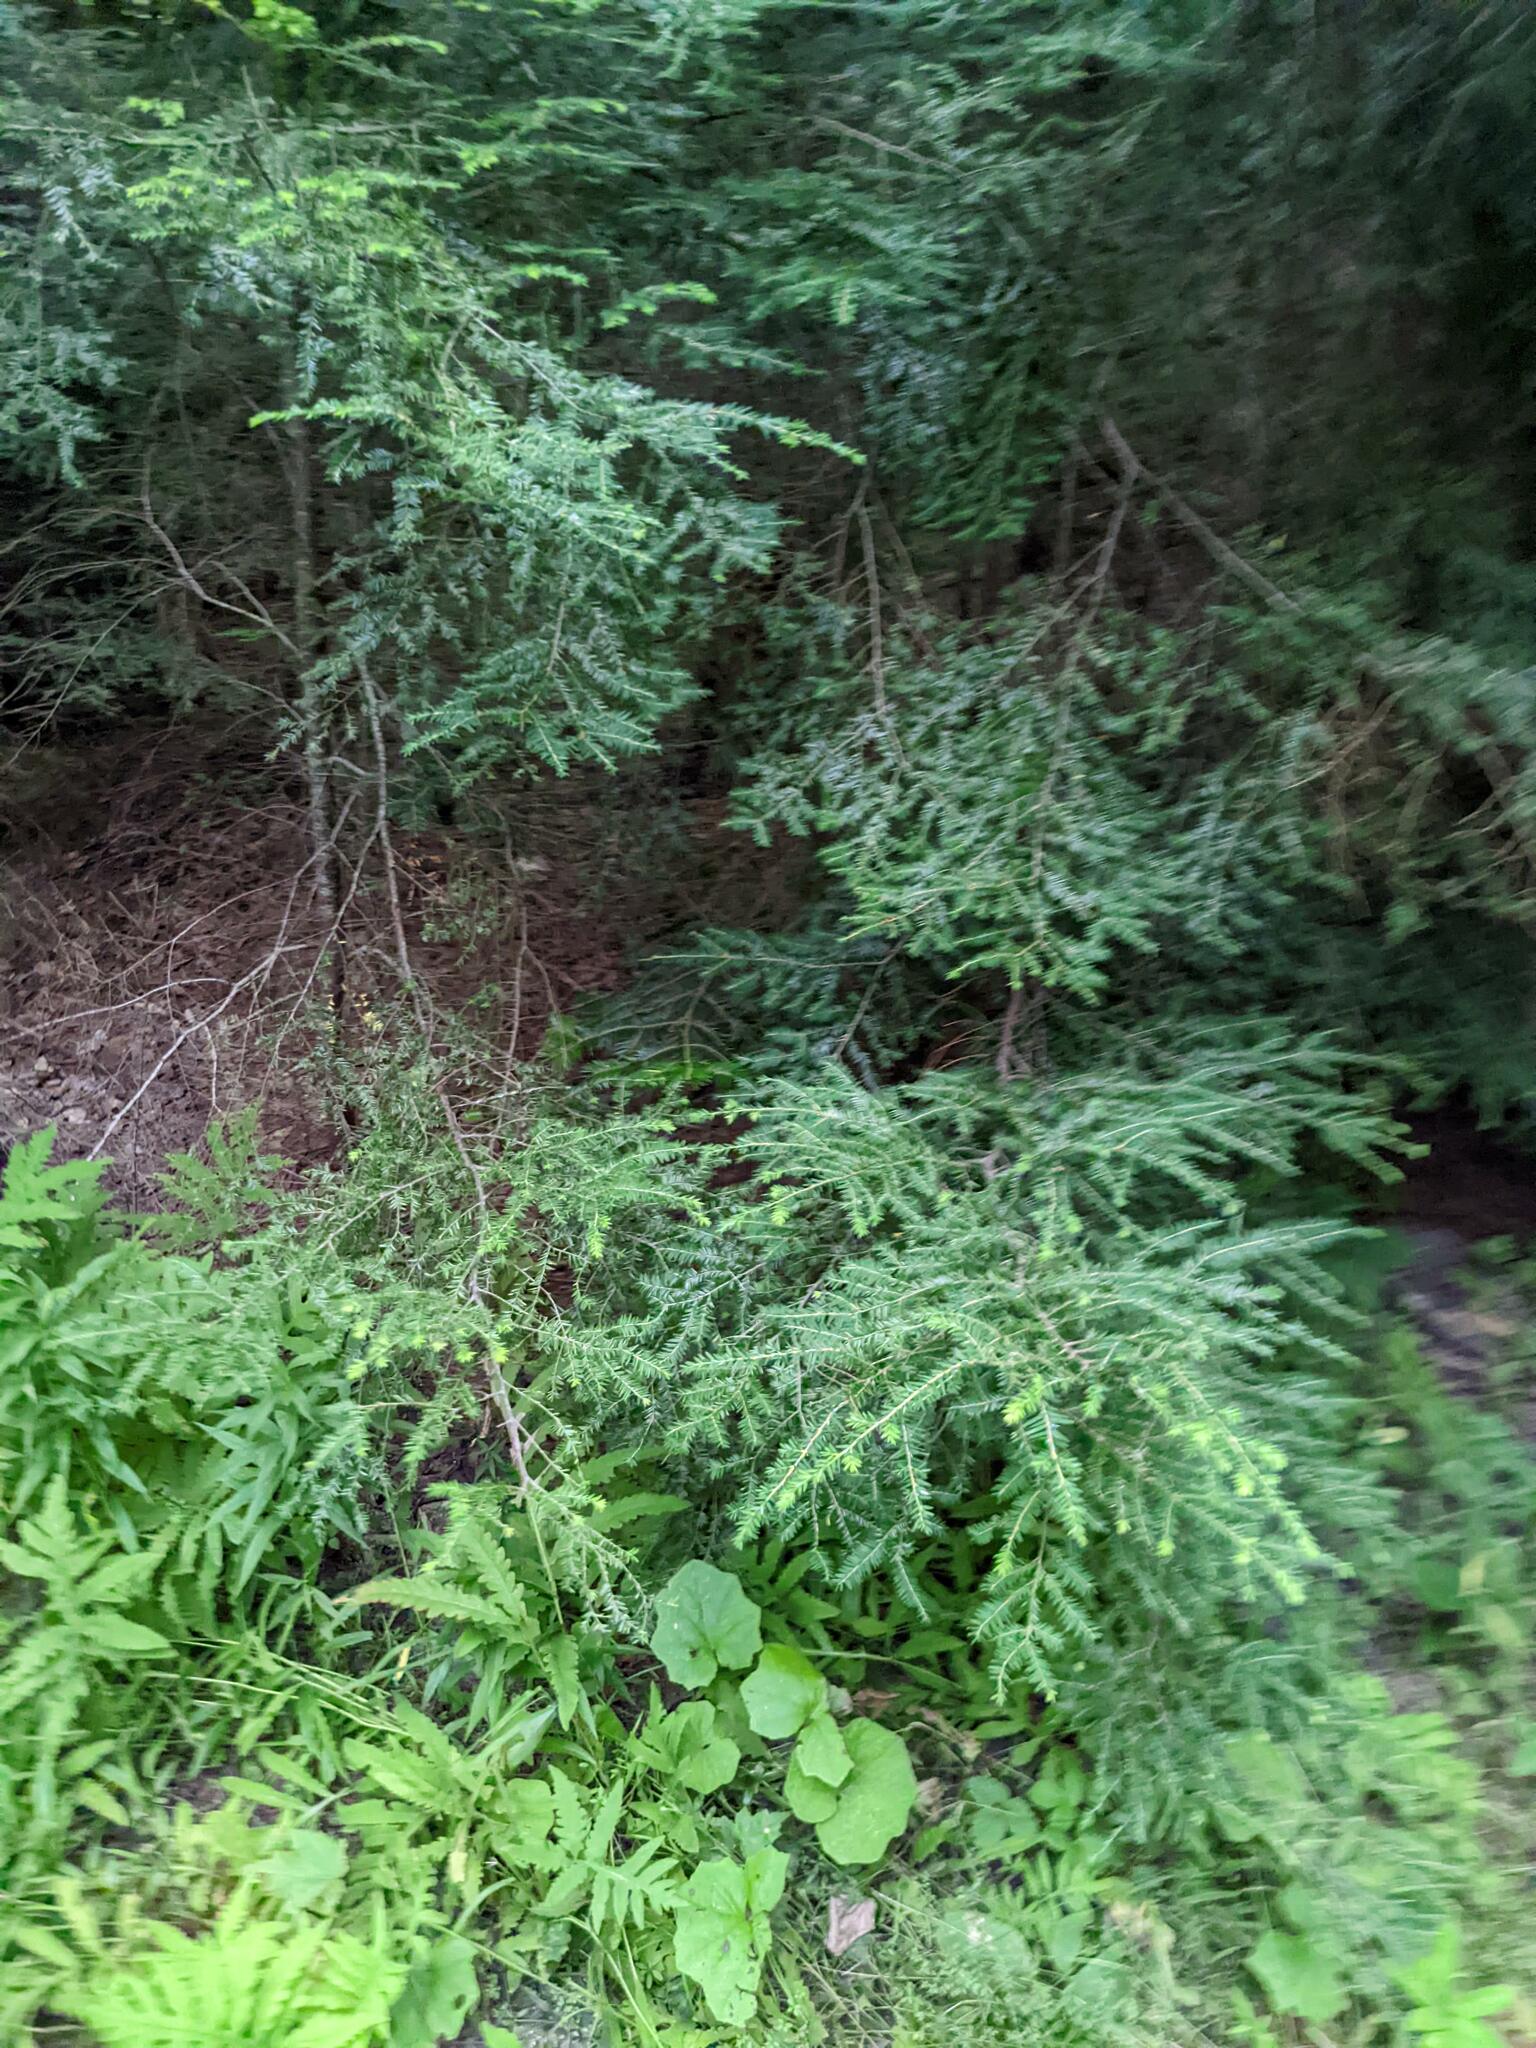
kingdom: Plantae
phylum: Tracheophyta
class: Pinopsida
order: Pinales
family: Pinaceae
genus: Tsuga
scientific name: Tsuga canadensis
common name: Eastern hemlock
